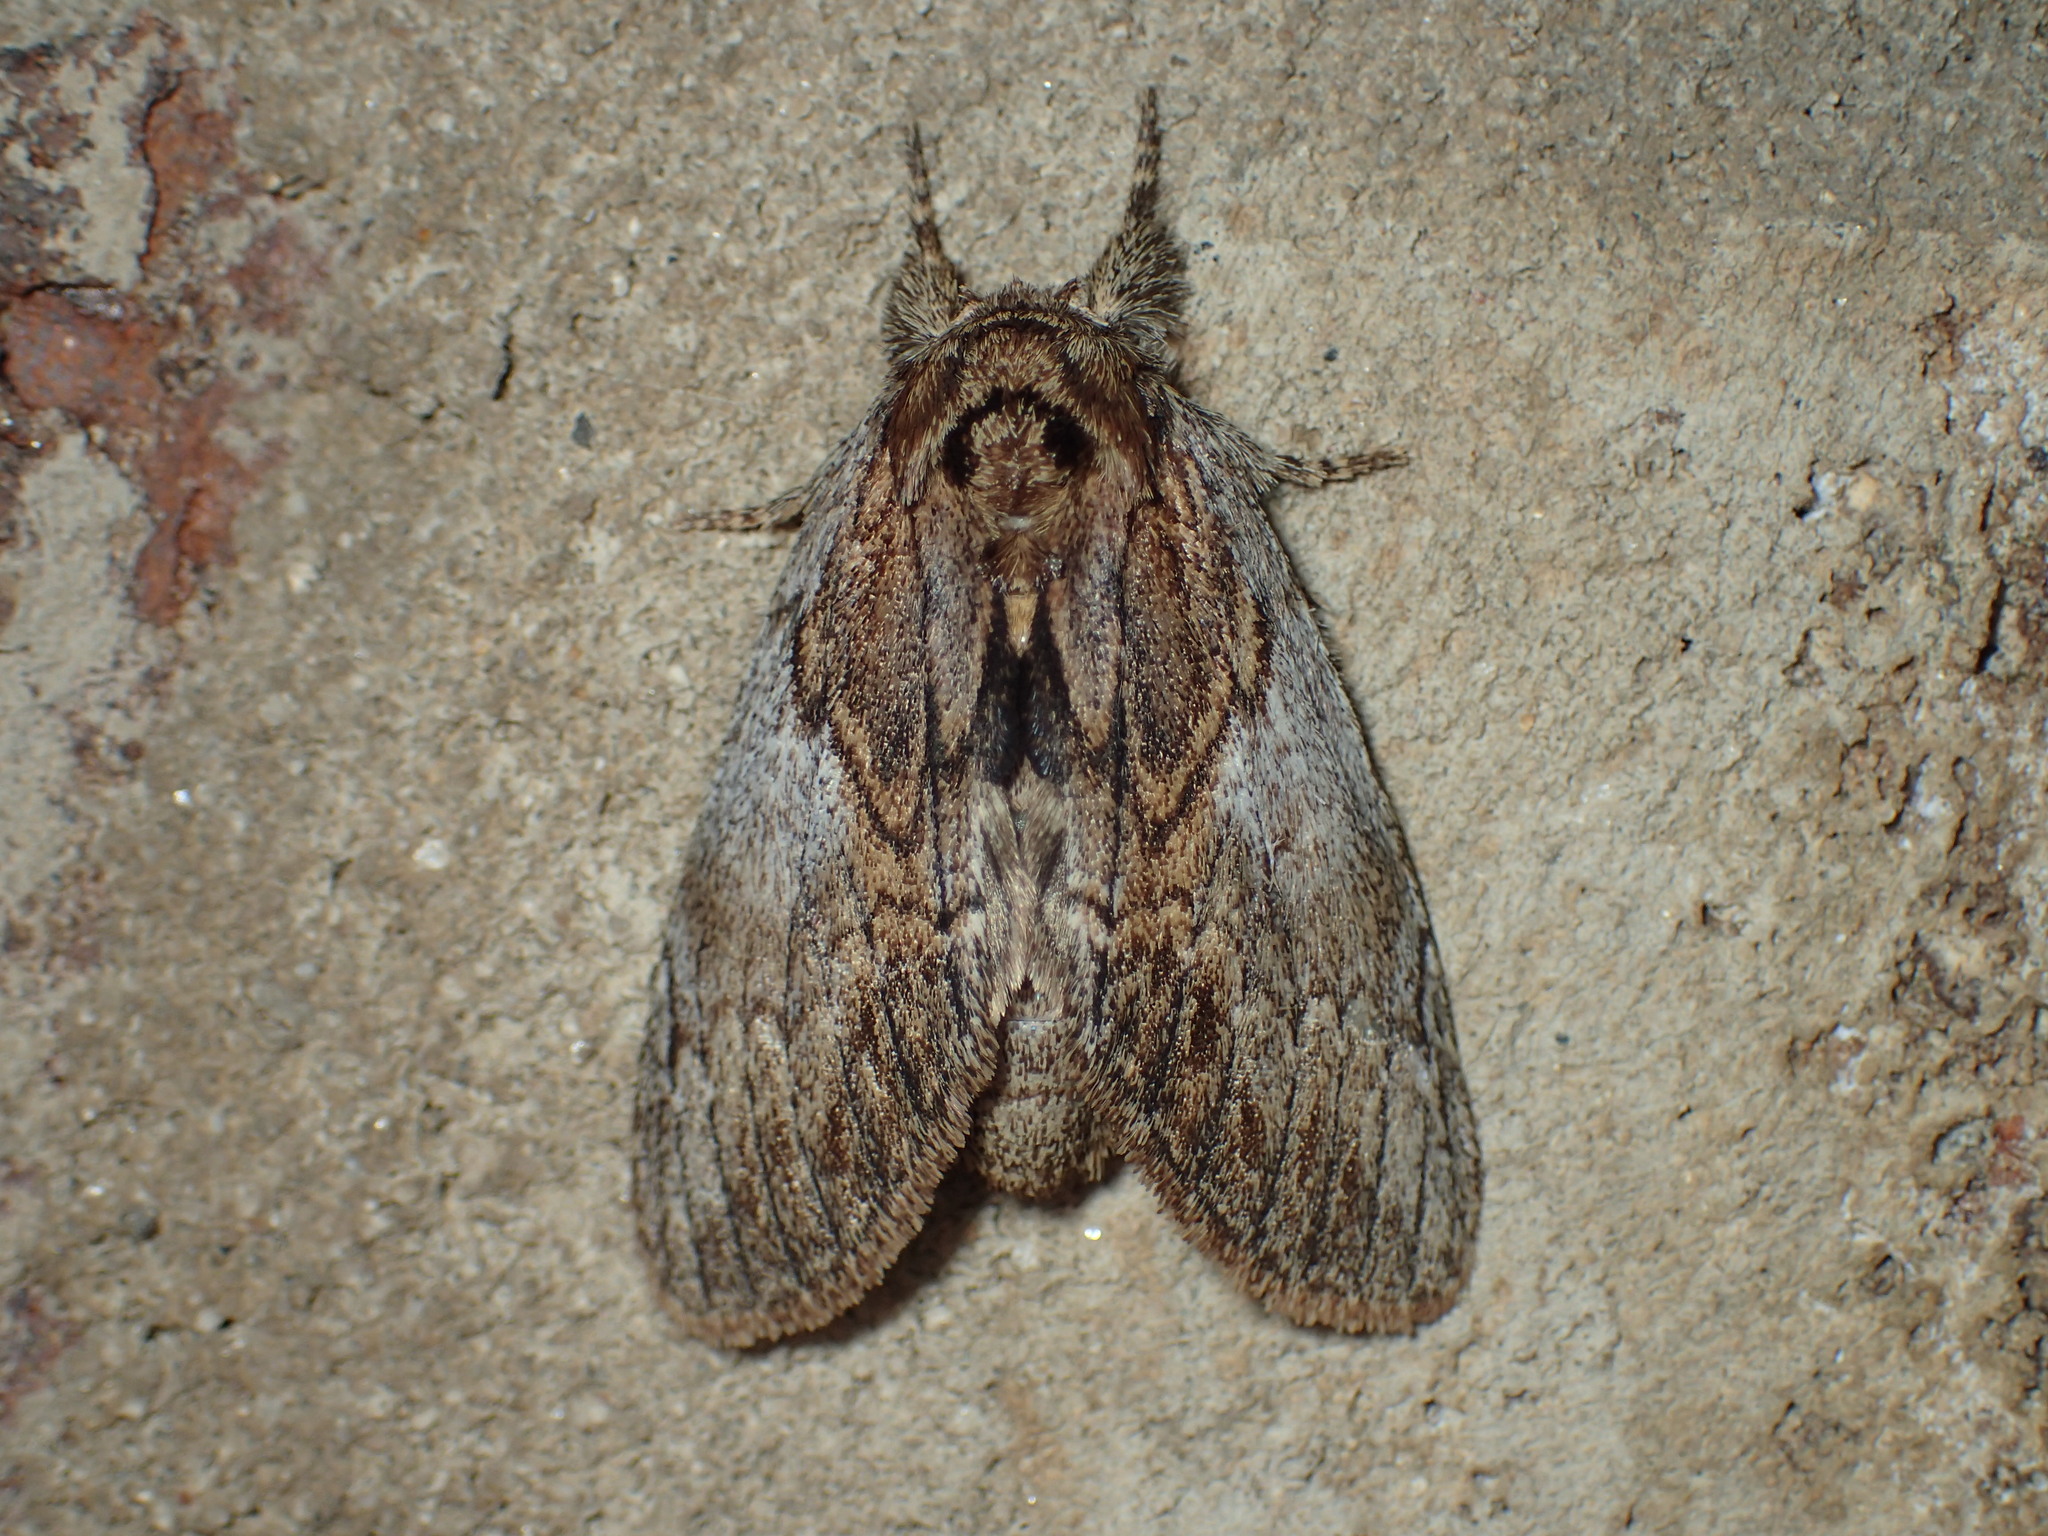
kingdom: Animalia
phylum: Arthropoda
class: Insecta
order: Lepidoptera
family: Notodontidae
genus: Peridea
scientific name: Peridea basitriens
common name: Oval-based prominent
